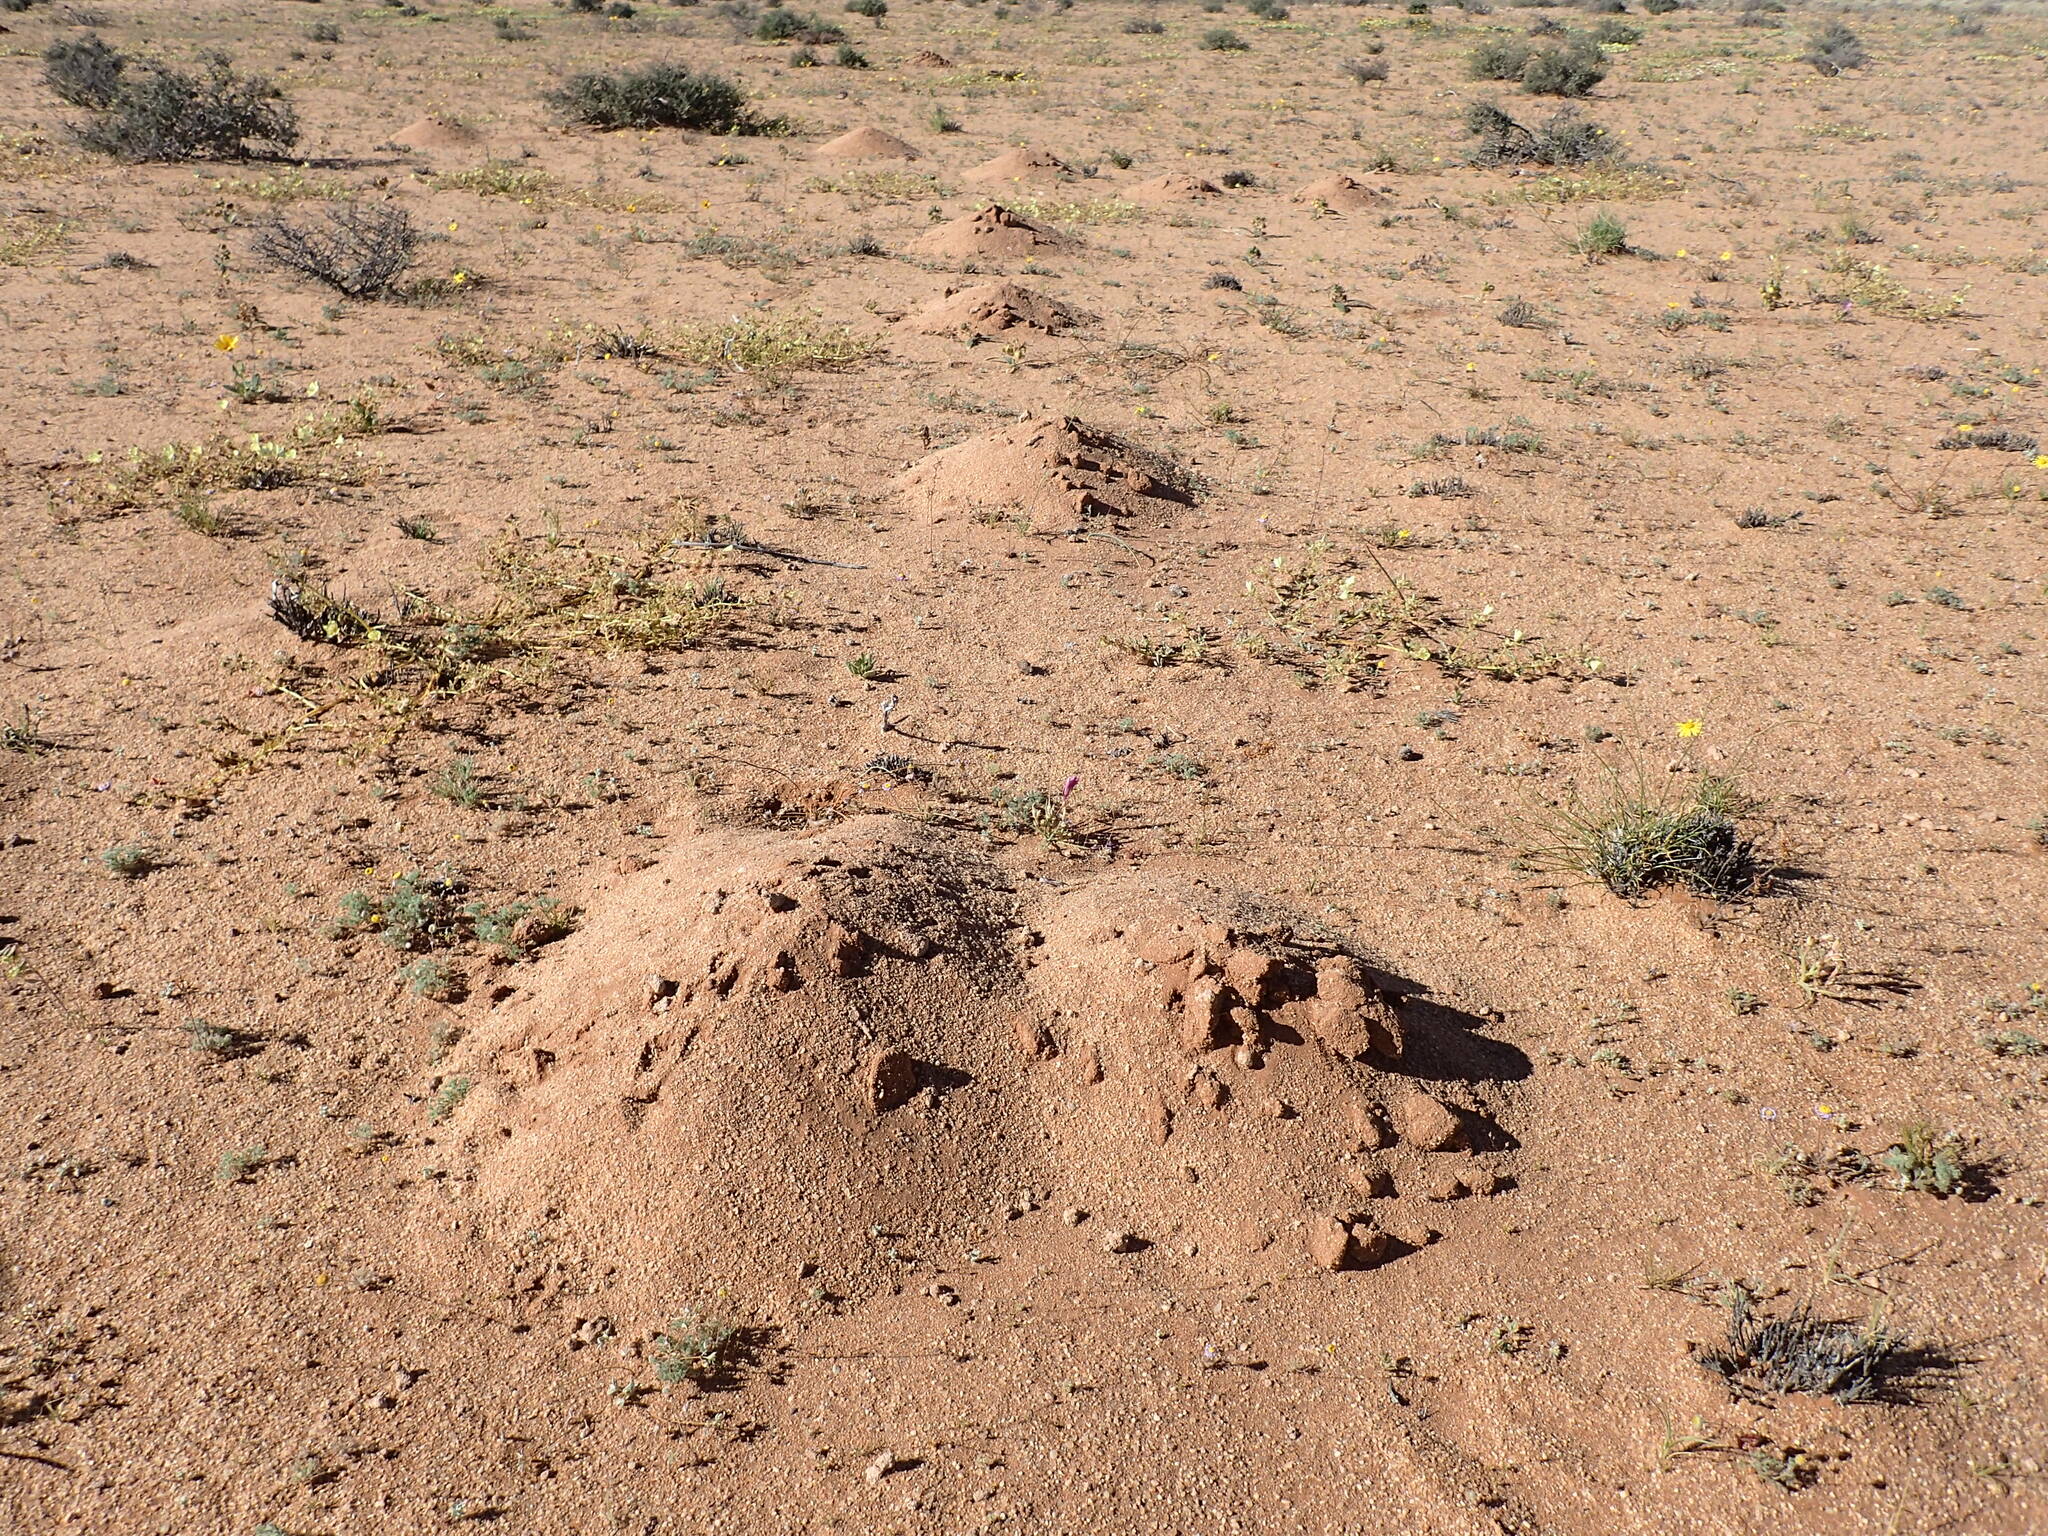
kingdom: Animalia
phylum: Chordata
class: Mammalia
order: Rodentia
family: Bathyergidae
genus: Bathyergus
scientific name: Bathyergus janetta
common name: Namaqua dune mole-rat
